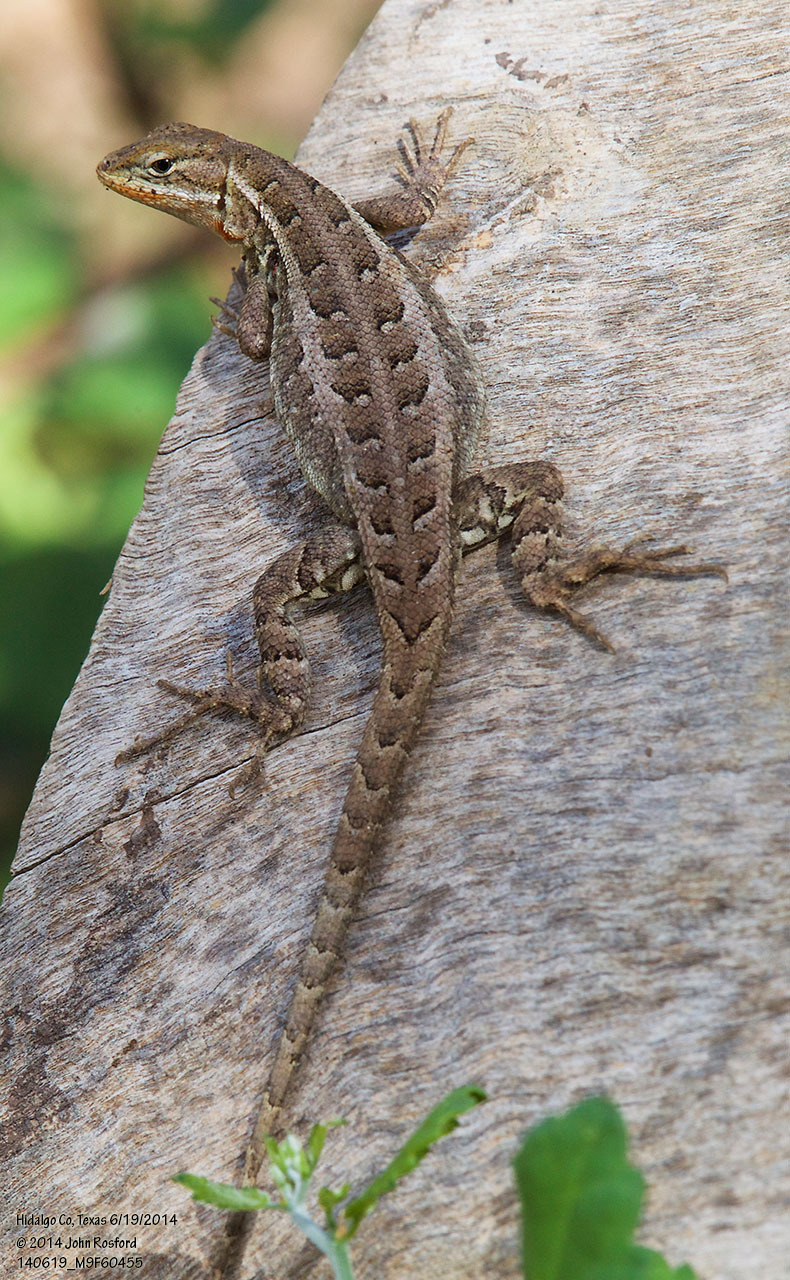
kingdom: Animalia
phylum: Chordata
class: Squamata
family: Phrynosomatidae
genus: Sceloporus
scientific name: Sceloporus variabilis
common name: Rosebelly lizard
